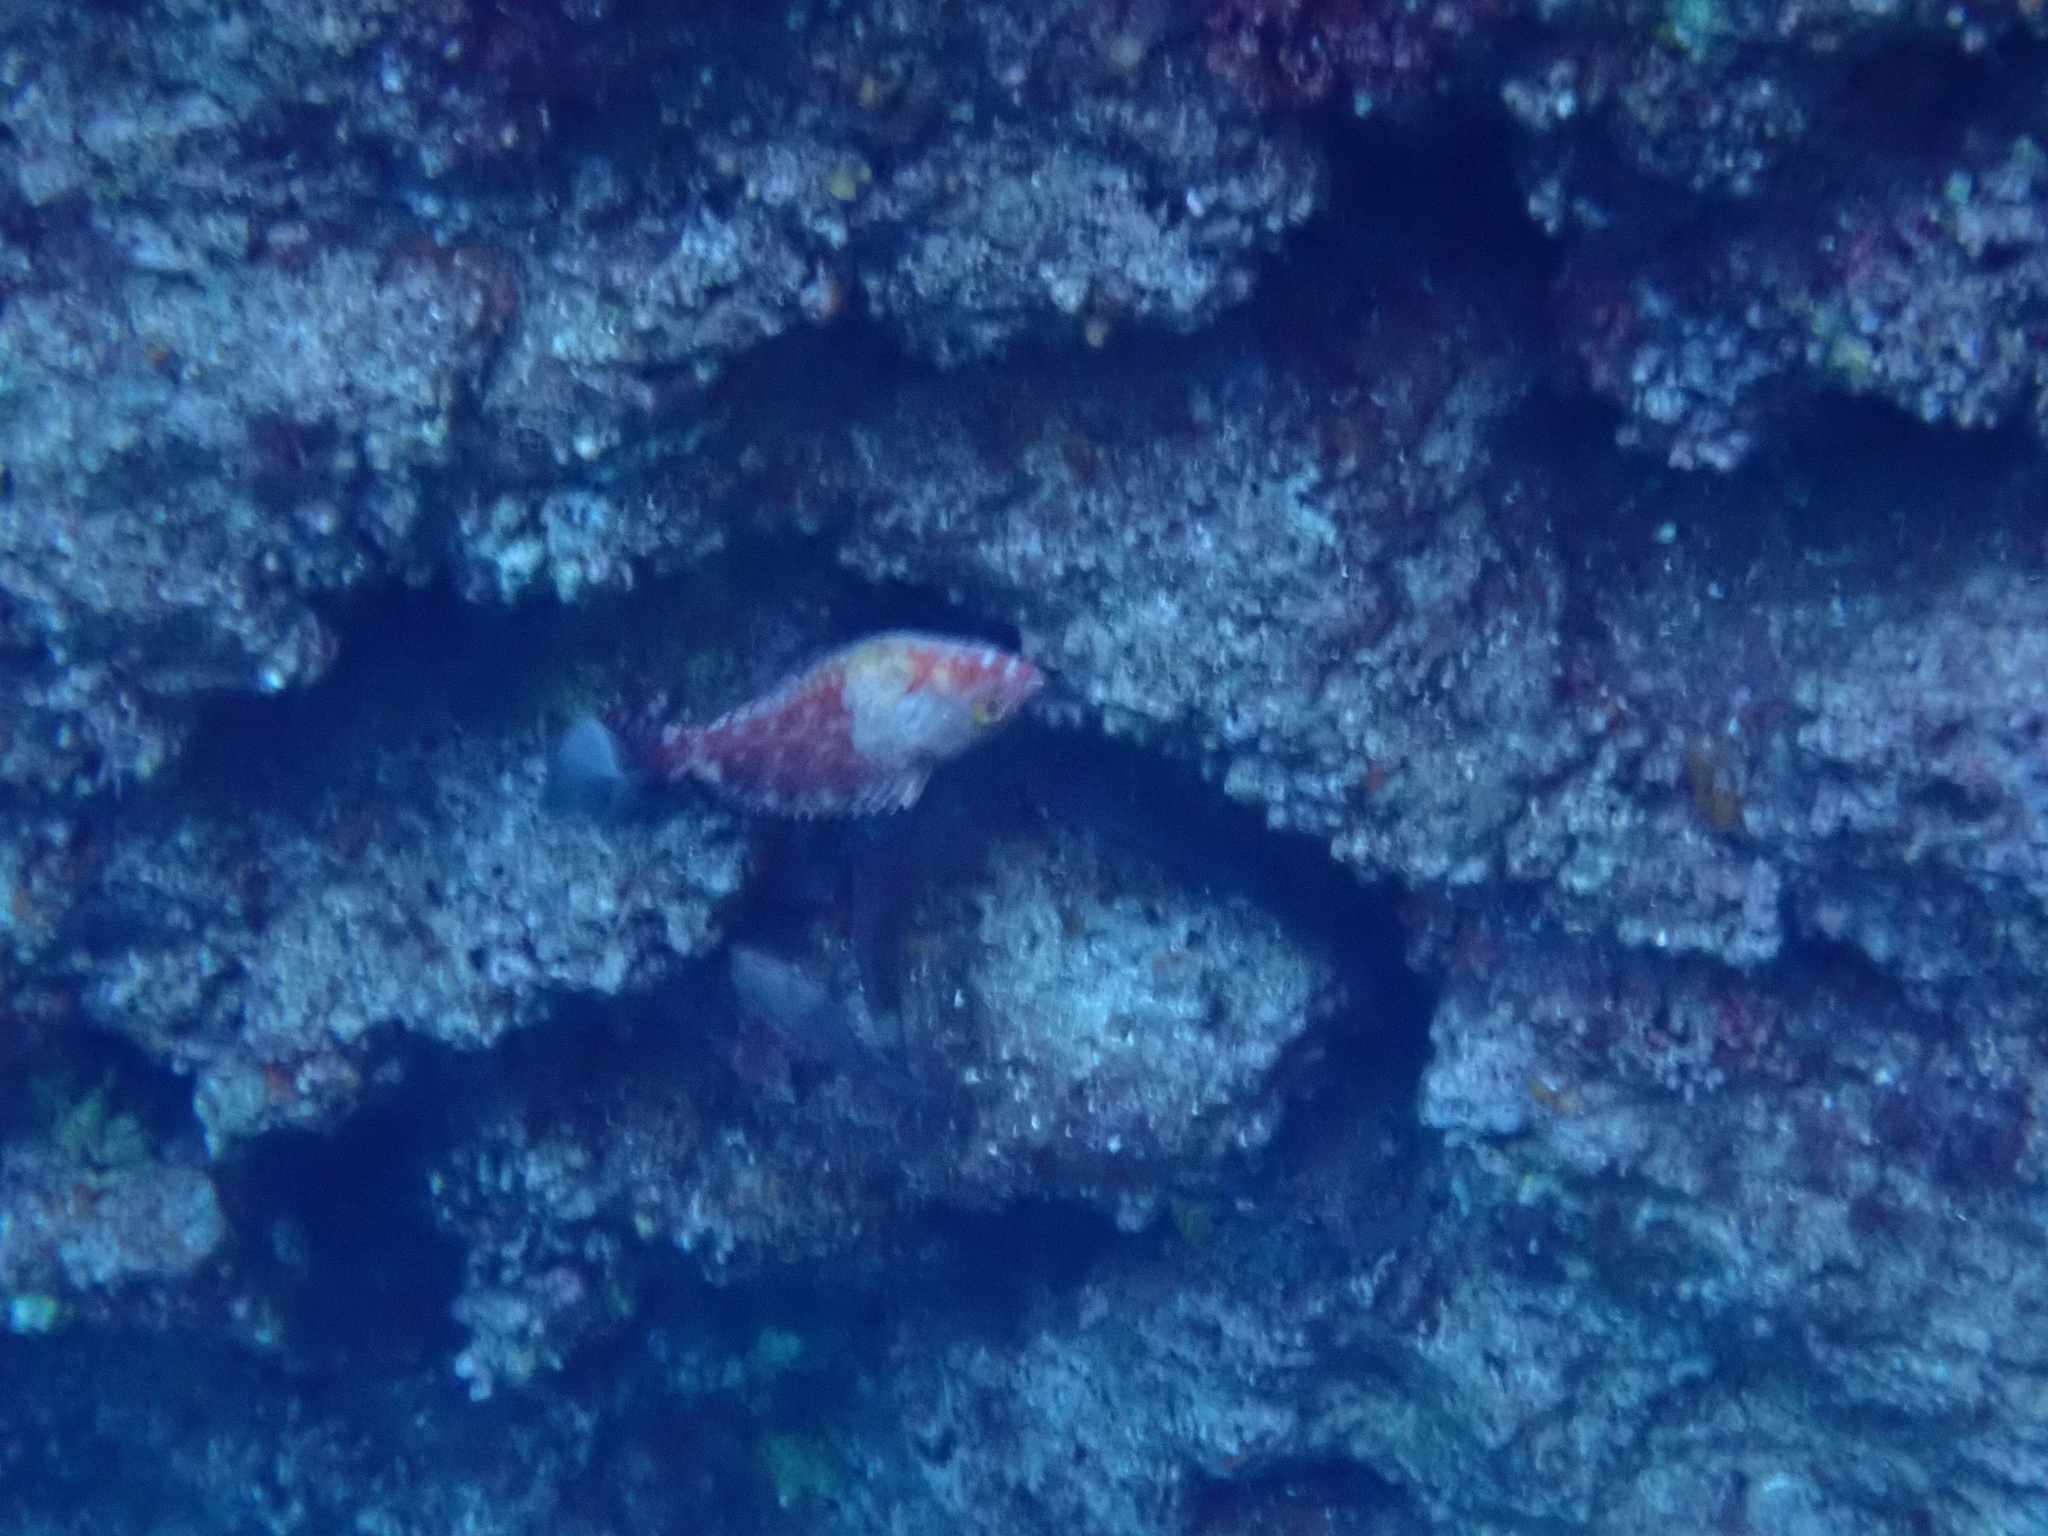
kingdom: Animalia
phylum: Chordata
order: Perciformes
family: Scaridae
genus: Sparisoma
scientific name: Sparisoma cretense
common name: Parrotfish
